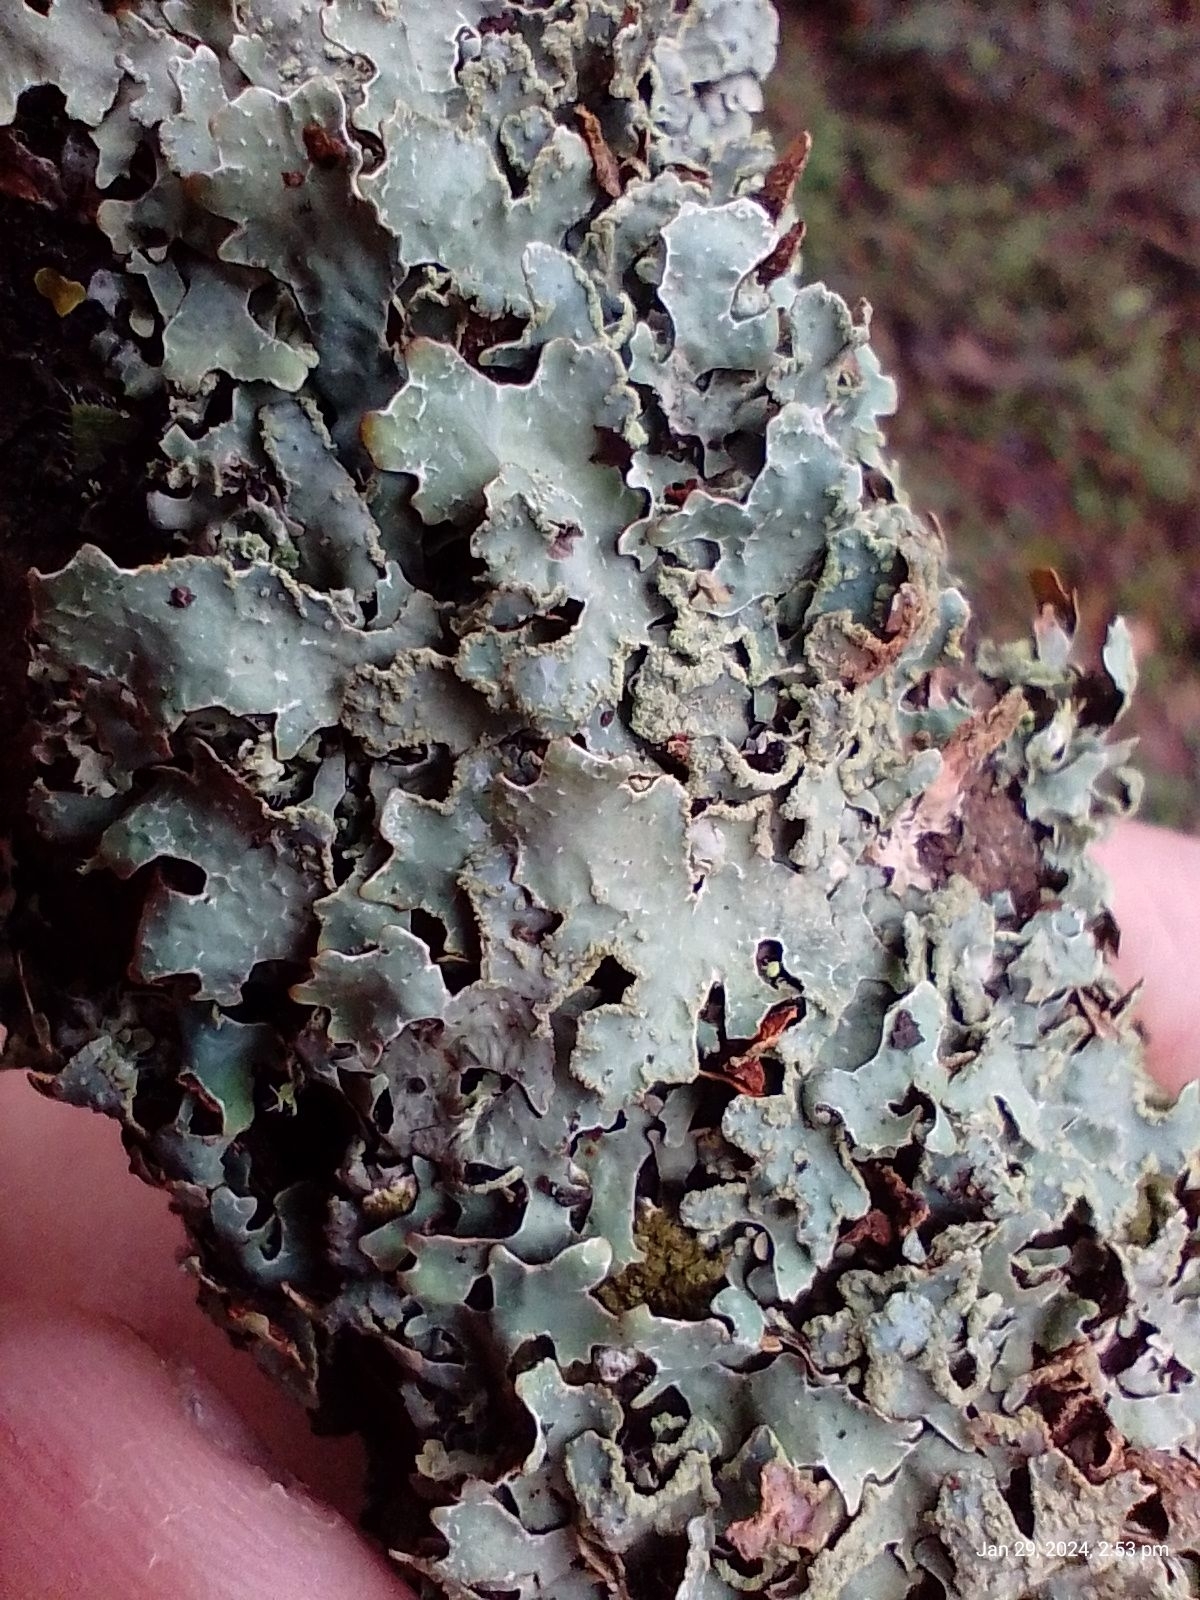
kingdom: Fungi
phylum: Ascomycota
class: Lecanoromycetes
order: Lecanorales
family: Parmeliaceae
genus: Parmelia
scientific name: Parmelia sulcata
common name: Netted shield lichen
